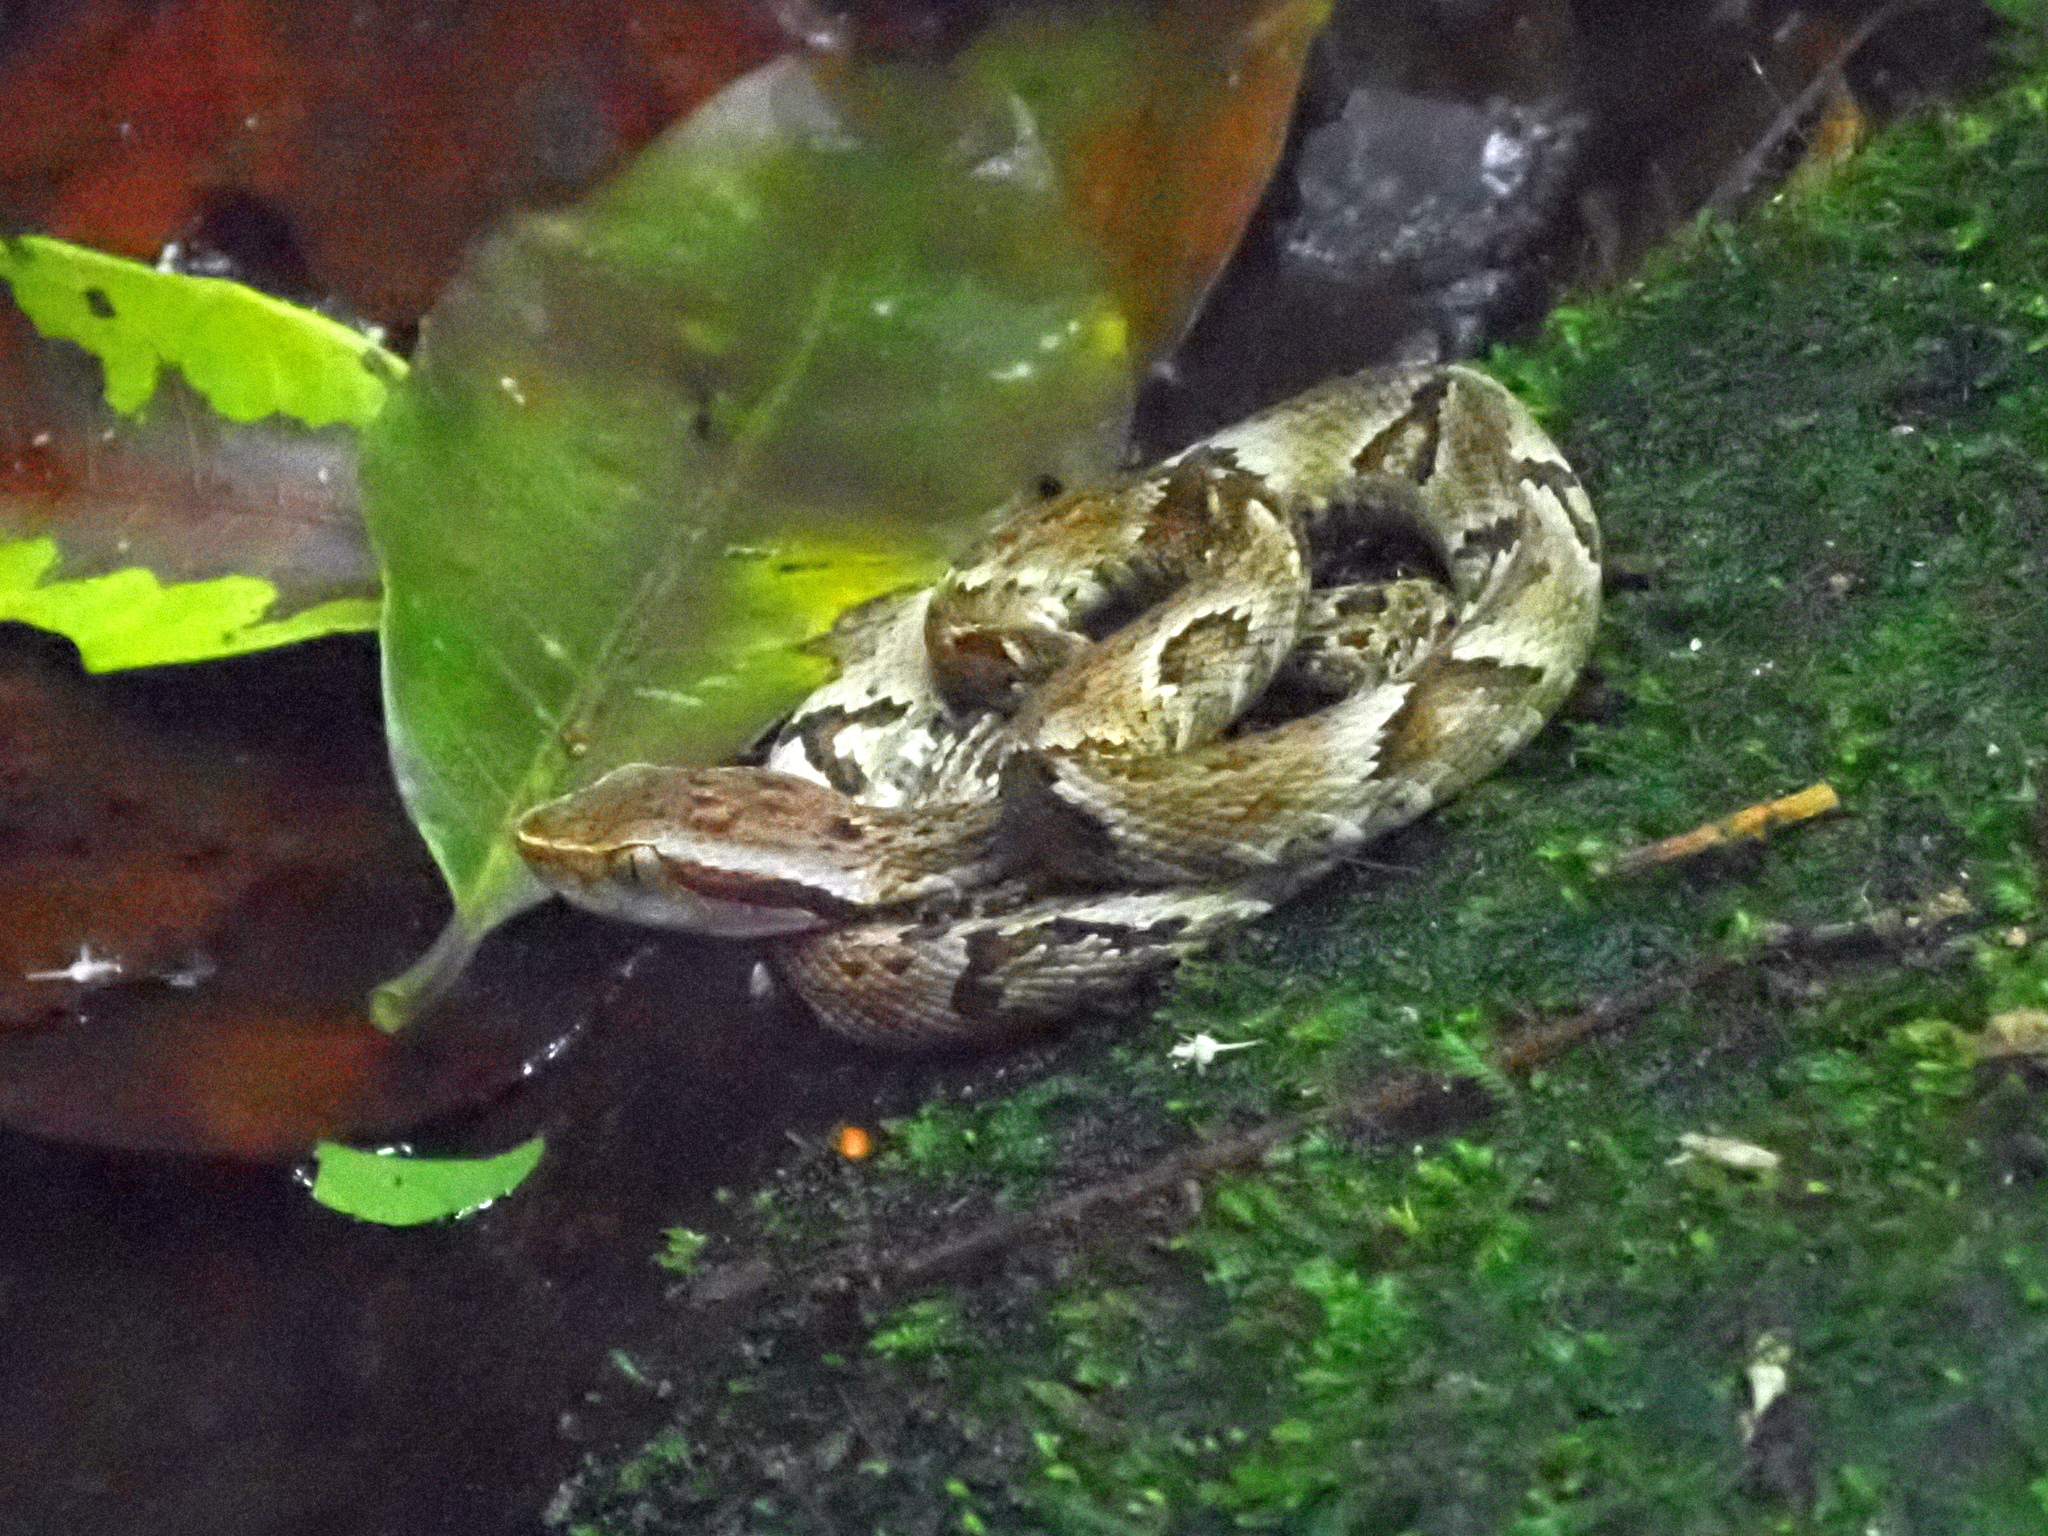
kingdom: Animalia
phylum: Chordata
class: Squamata
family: Viperidae
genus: Bothrops
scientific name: Bothrops jararaca
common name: Jararaca
